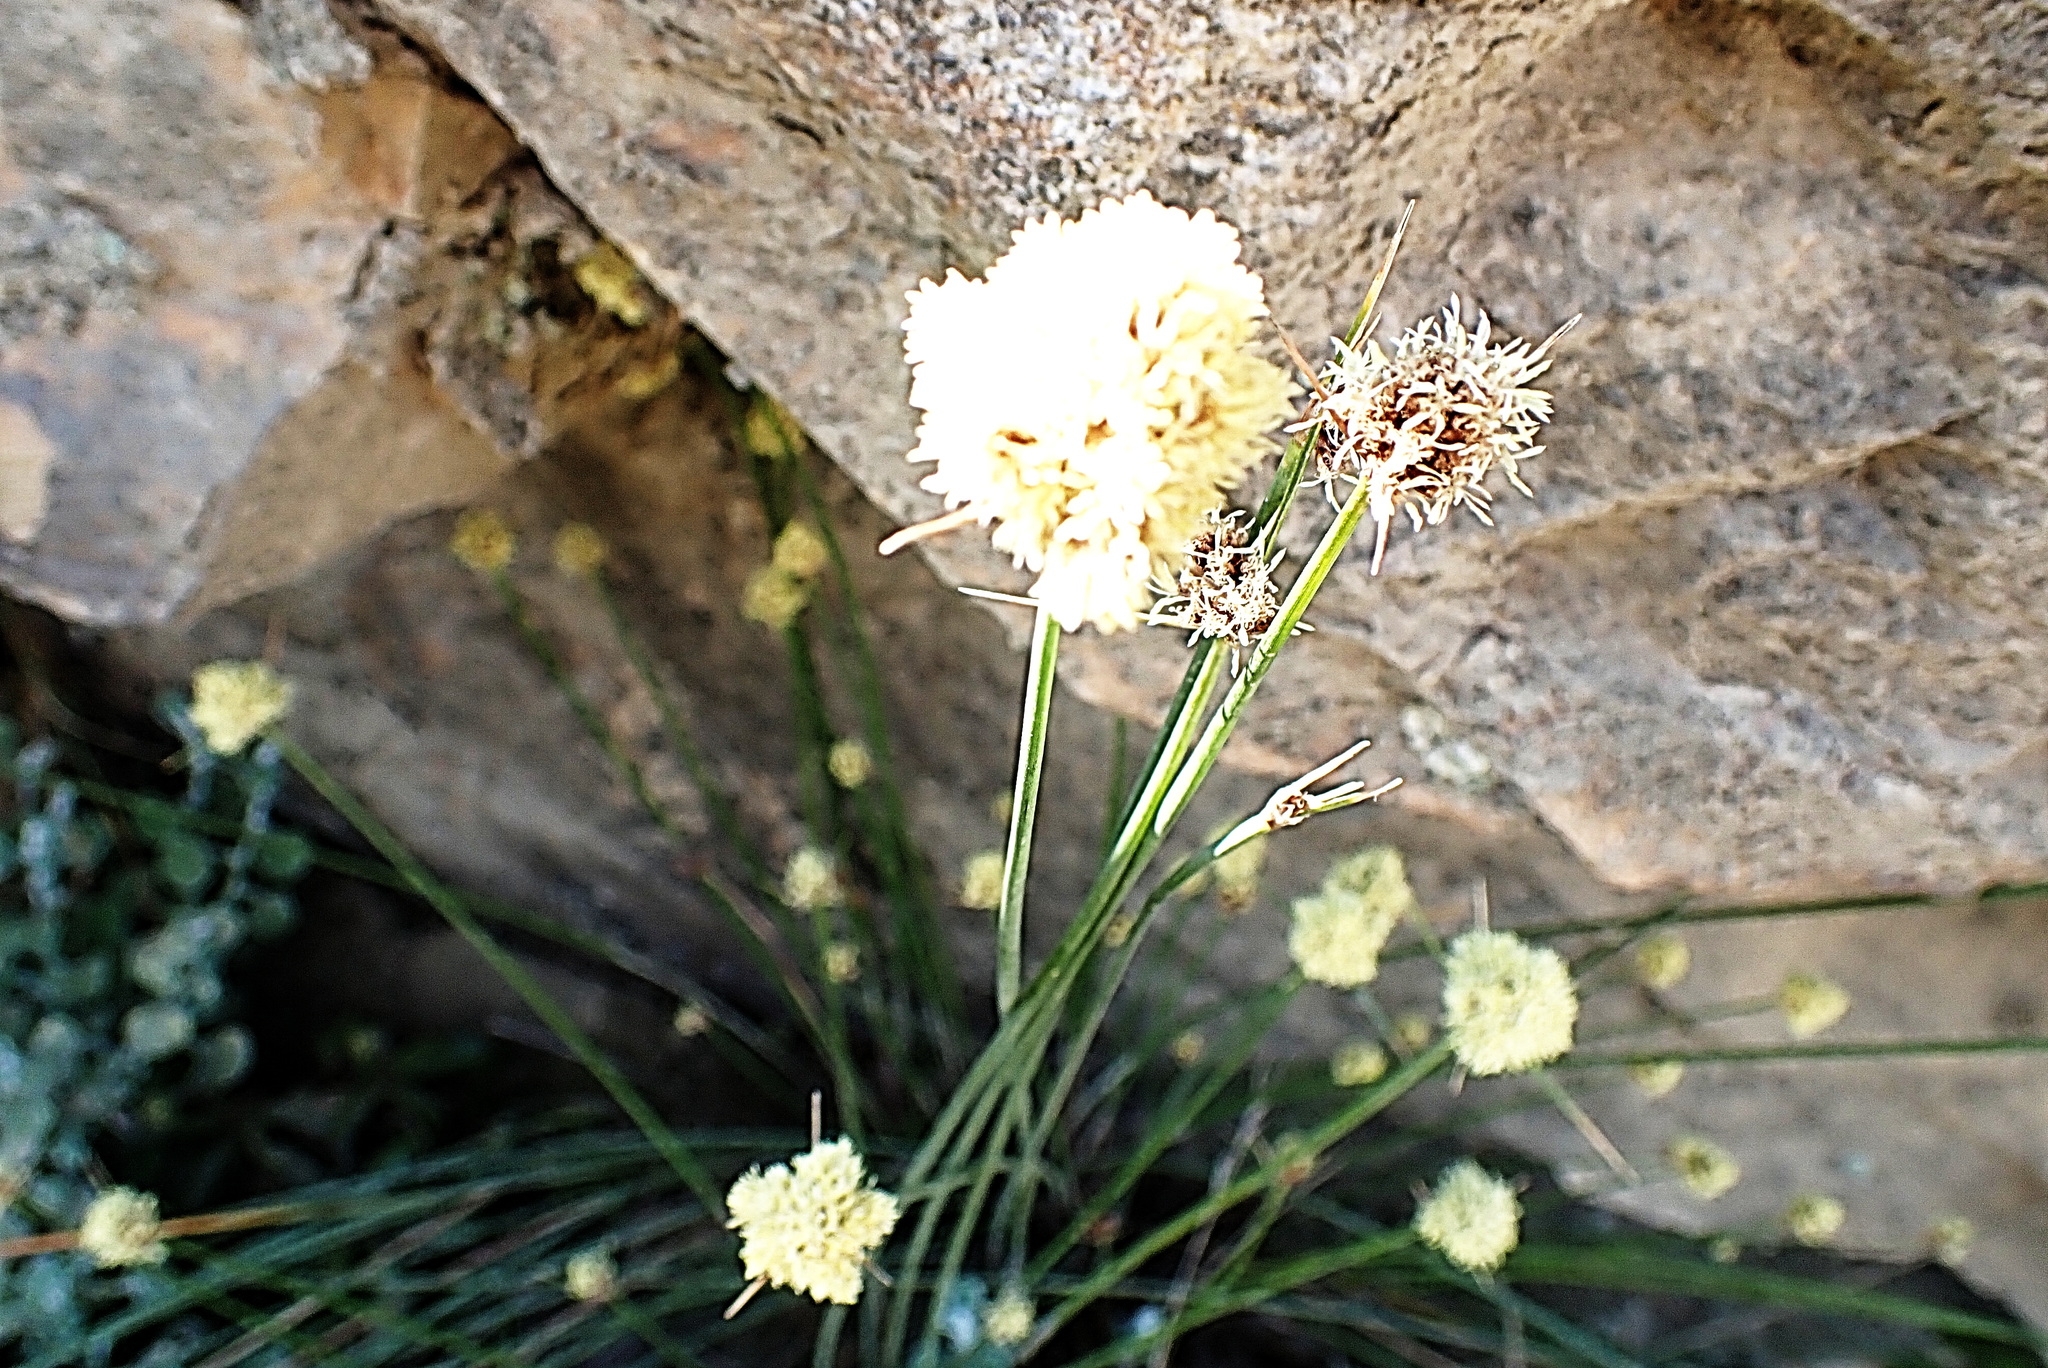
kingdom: Plantae
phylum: Tracheophyta
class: Liliopsida
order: Poales
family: Cyperaceae
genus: Ficinia
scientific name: Ficinia brevifolia
